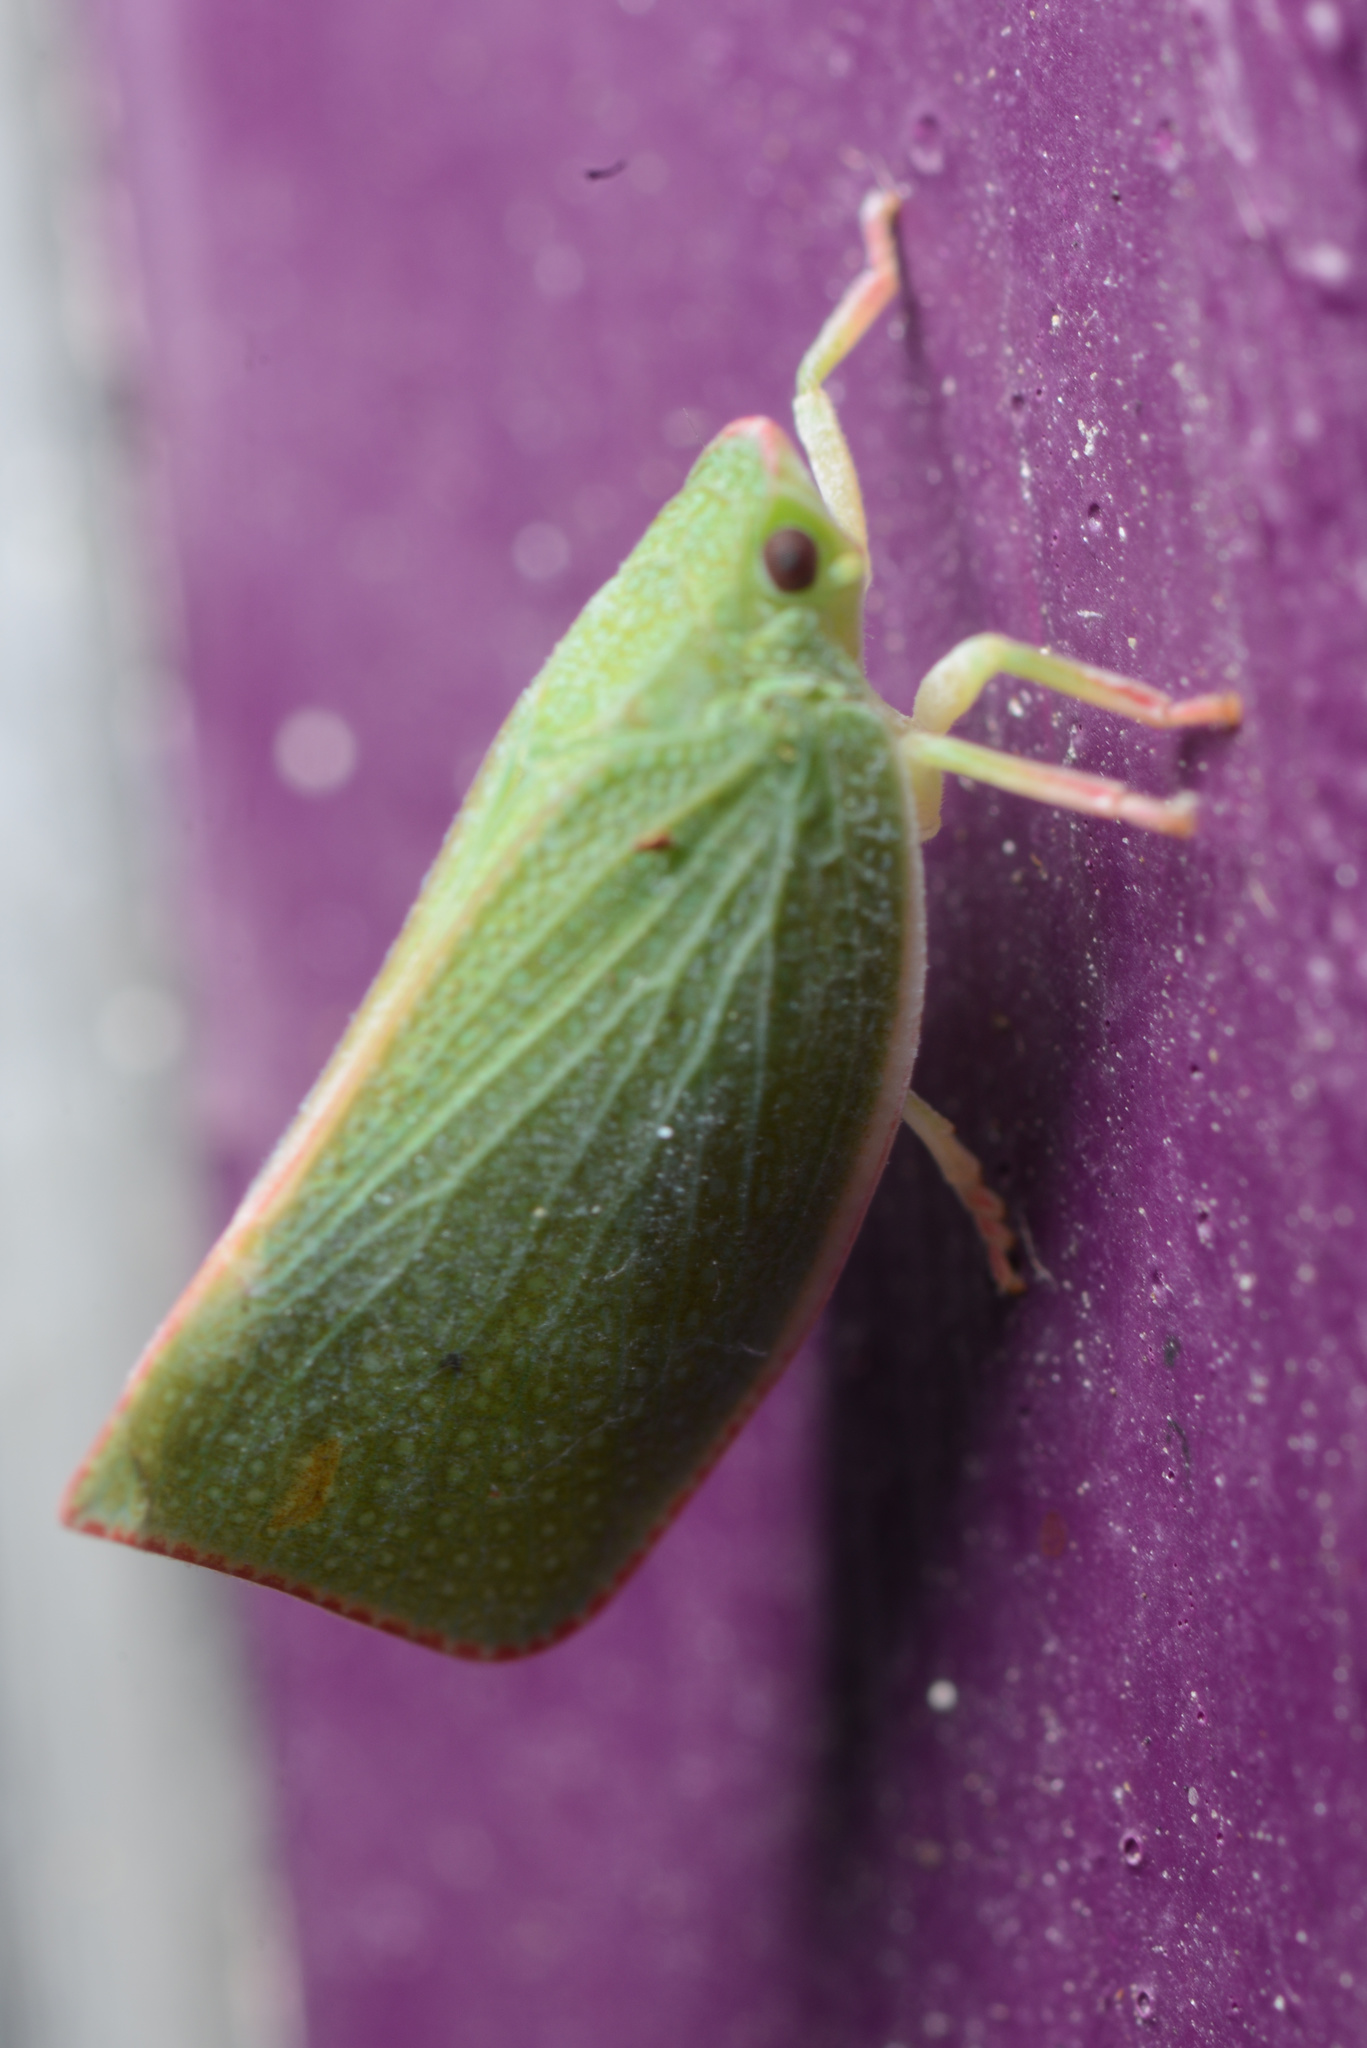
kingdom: Animalia
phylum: Arthropoda
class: Insecta
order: Hemiptera
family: Flatidae
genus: Siphanta
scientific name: Siphanta acuta
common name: Torpedo bug
